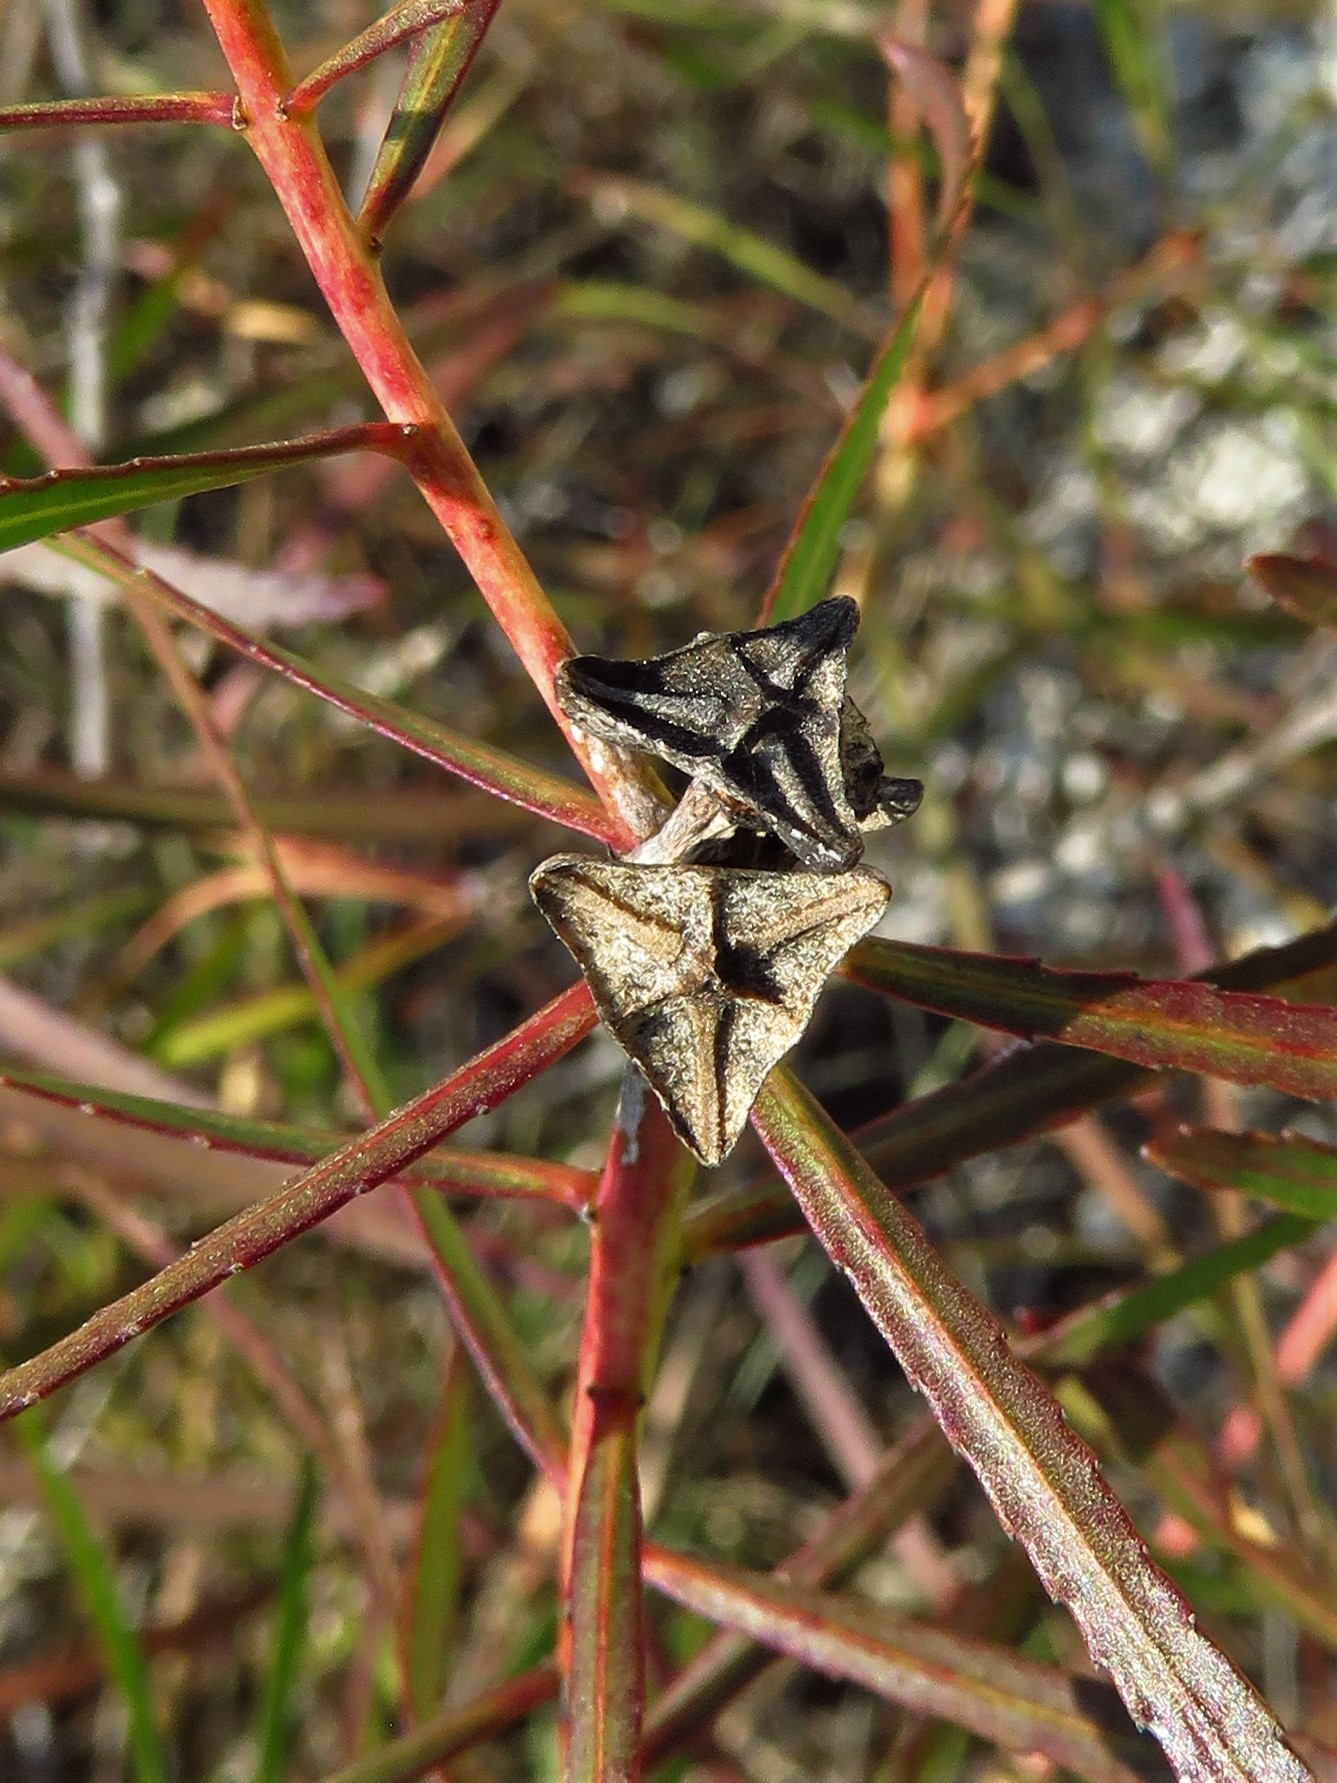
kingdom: Plantae
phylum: Tracheophyta
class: Magnoliopsida
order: Malpighiales
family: Euphorbiaceae
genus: Stillingia
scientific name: Stillingia texana
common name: Texas stillingia
